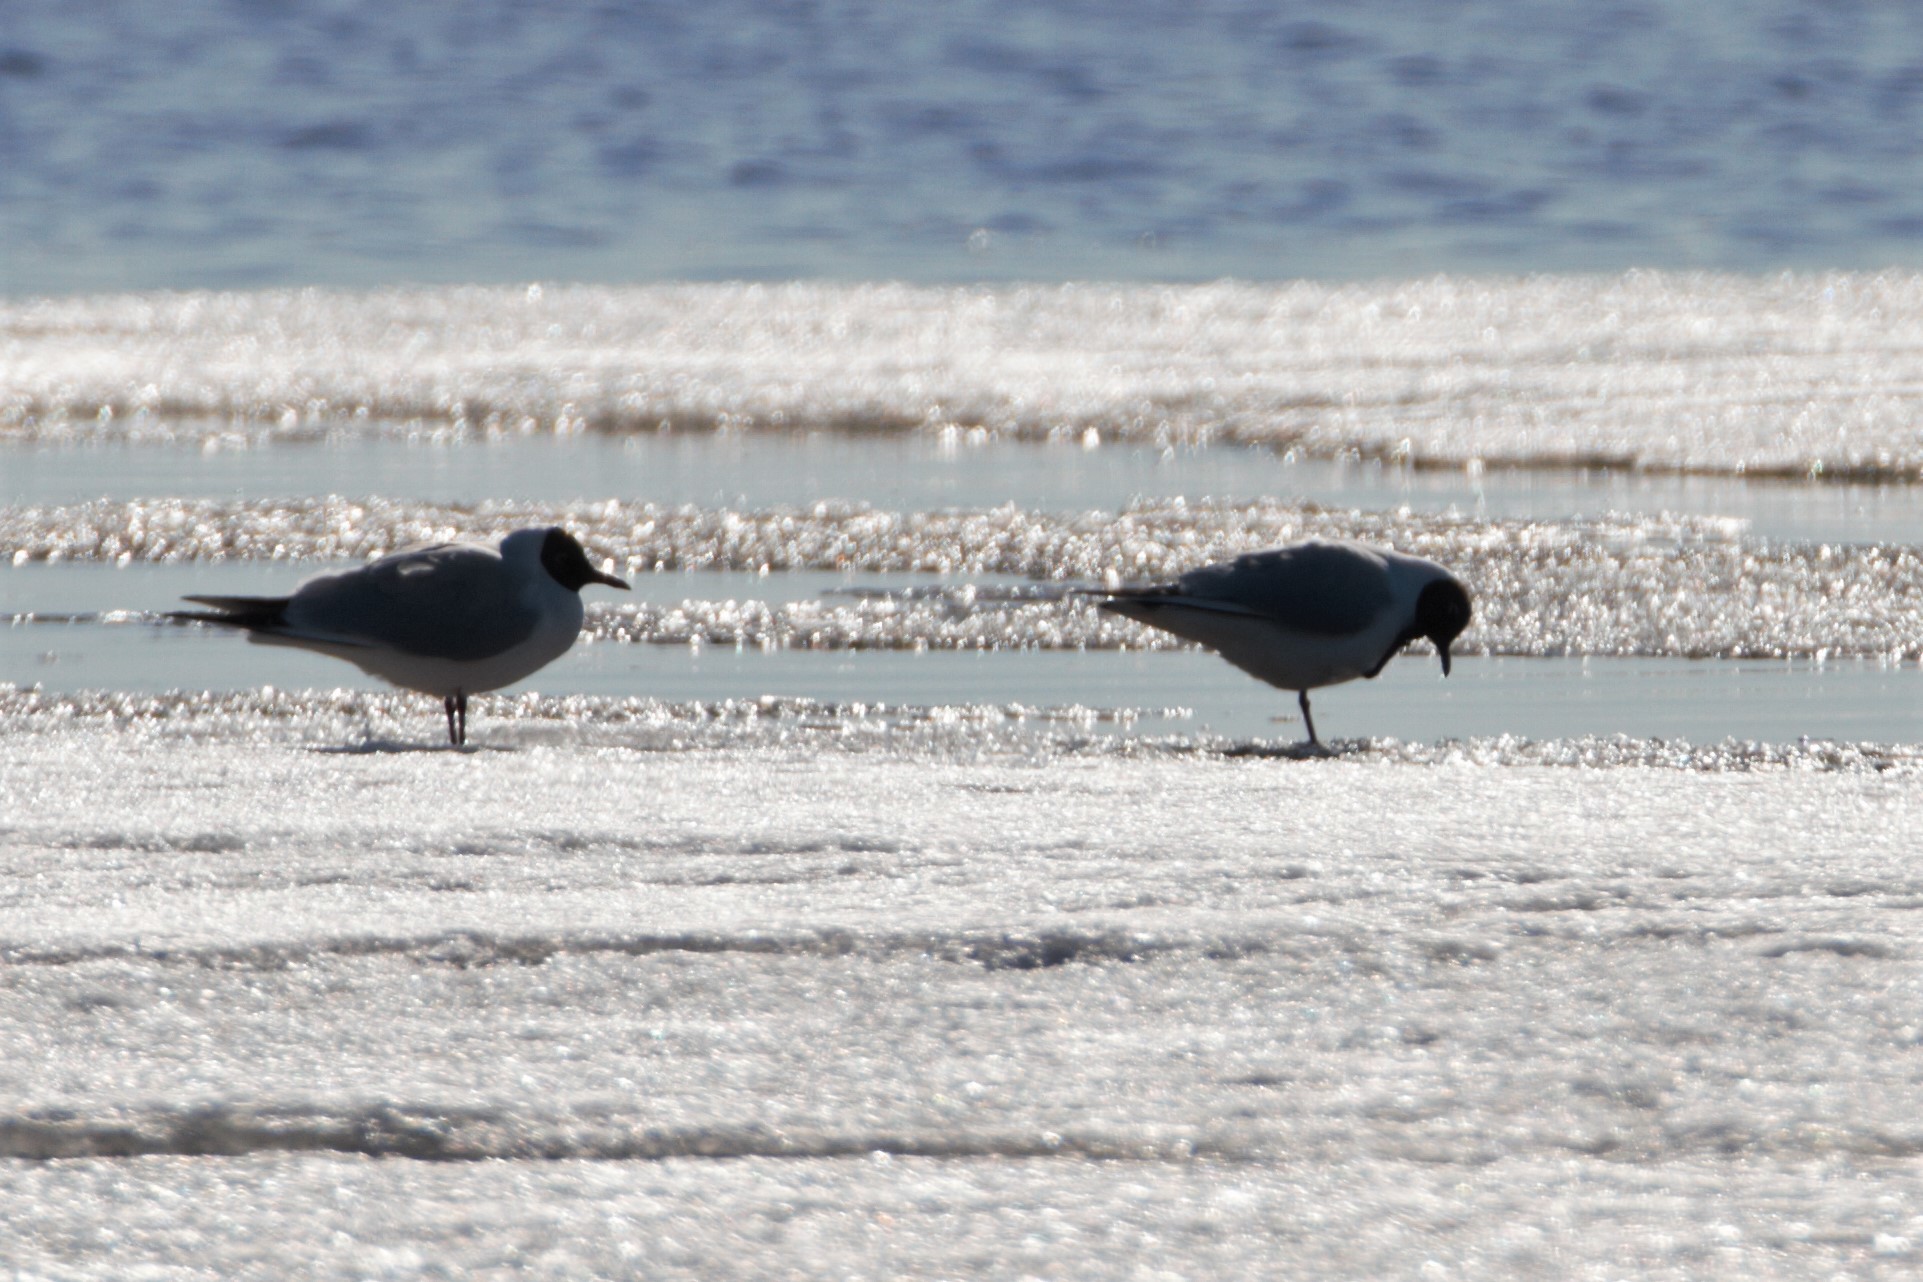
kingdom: Animalia
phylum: Chordata
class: Aves
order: Charadriiformes
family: Laridae
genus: Chroicocephalus
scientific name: Chroicocephalus ridibundus
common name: Black-headed gull
